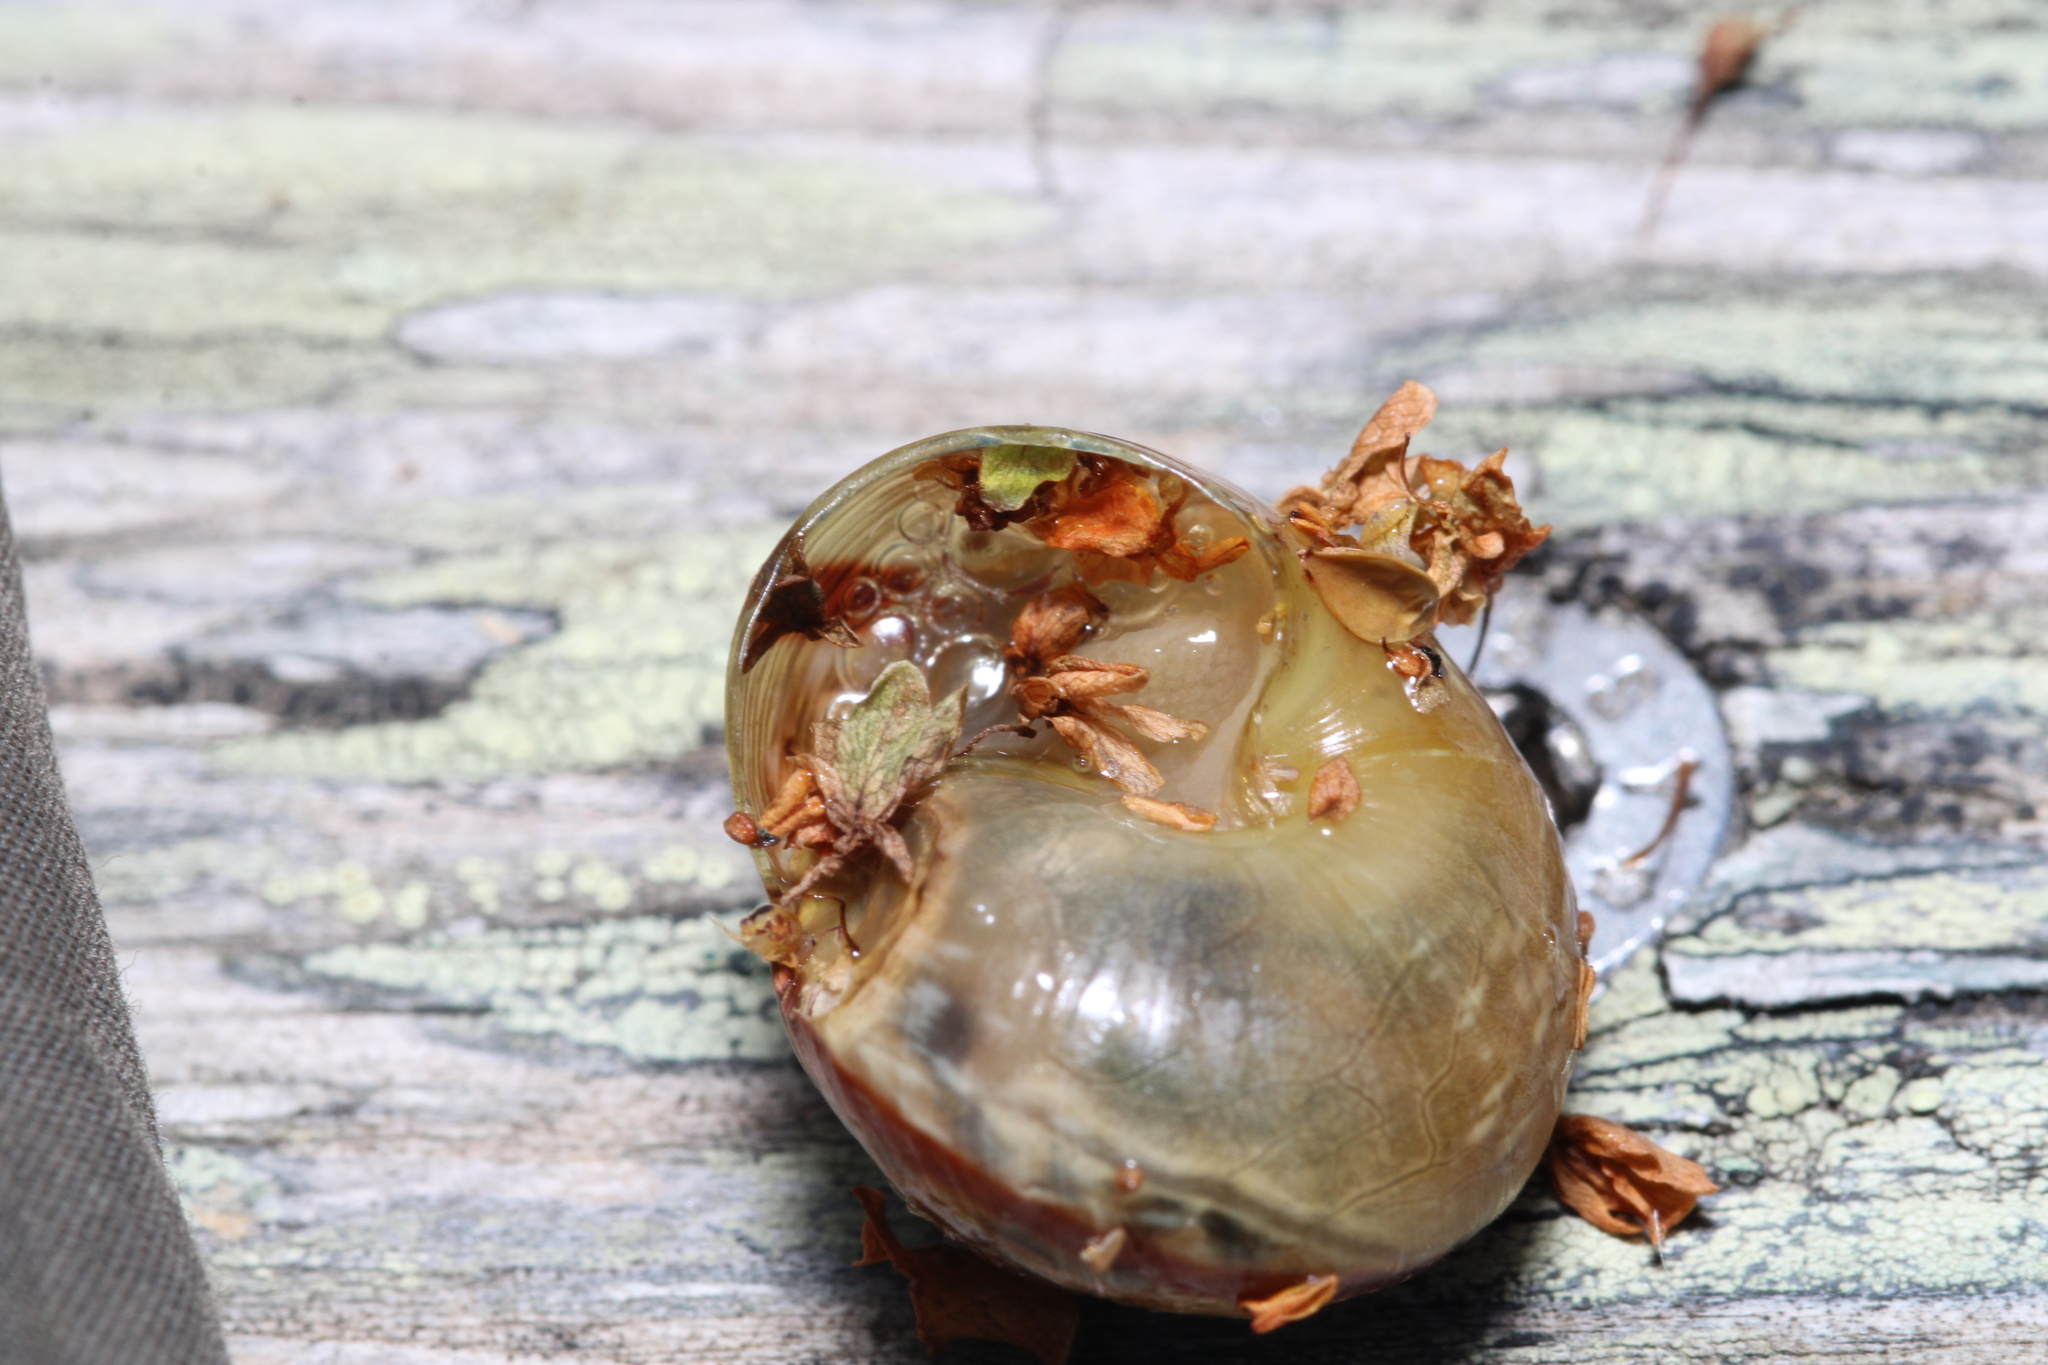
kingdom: Animalia
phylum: Mollusca
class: Gastropoda
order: Stylommatophora
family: Helicidae
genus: Arianta
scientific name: Arianta arbustorum
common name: Copse snail
